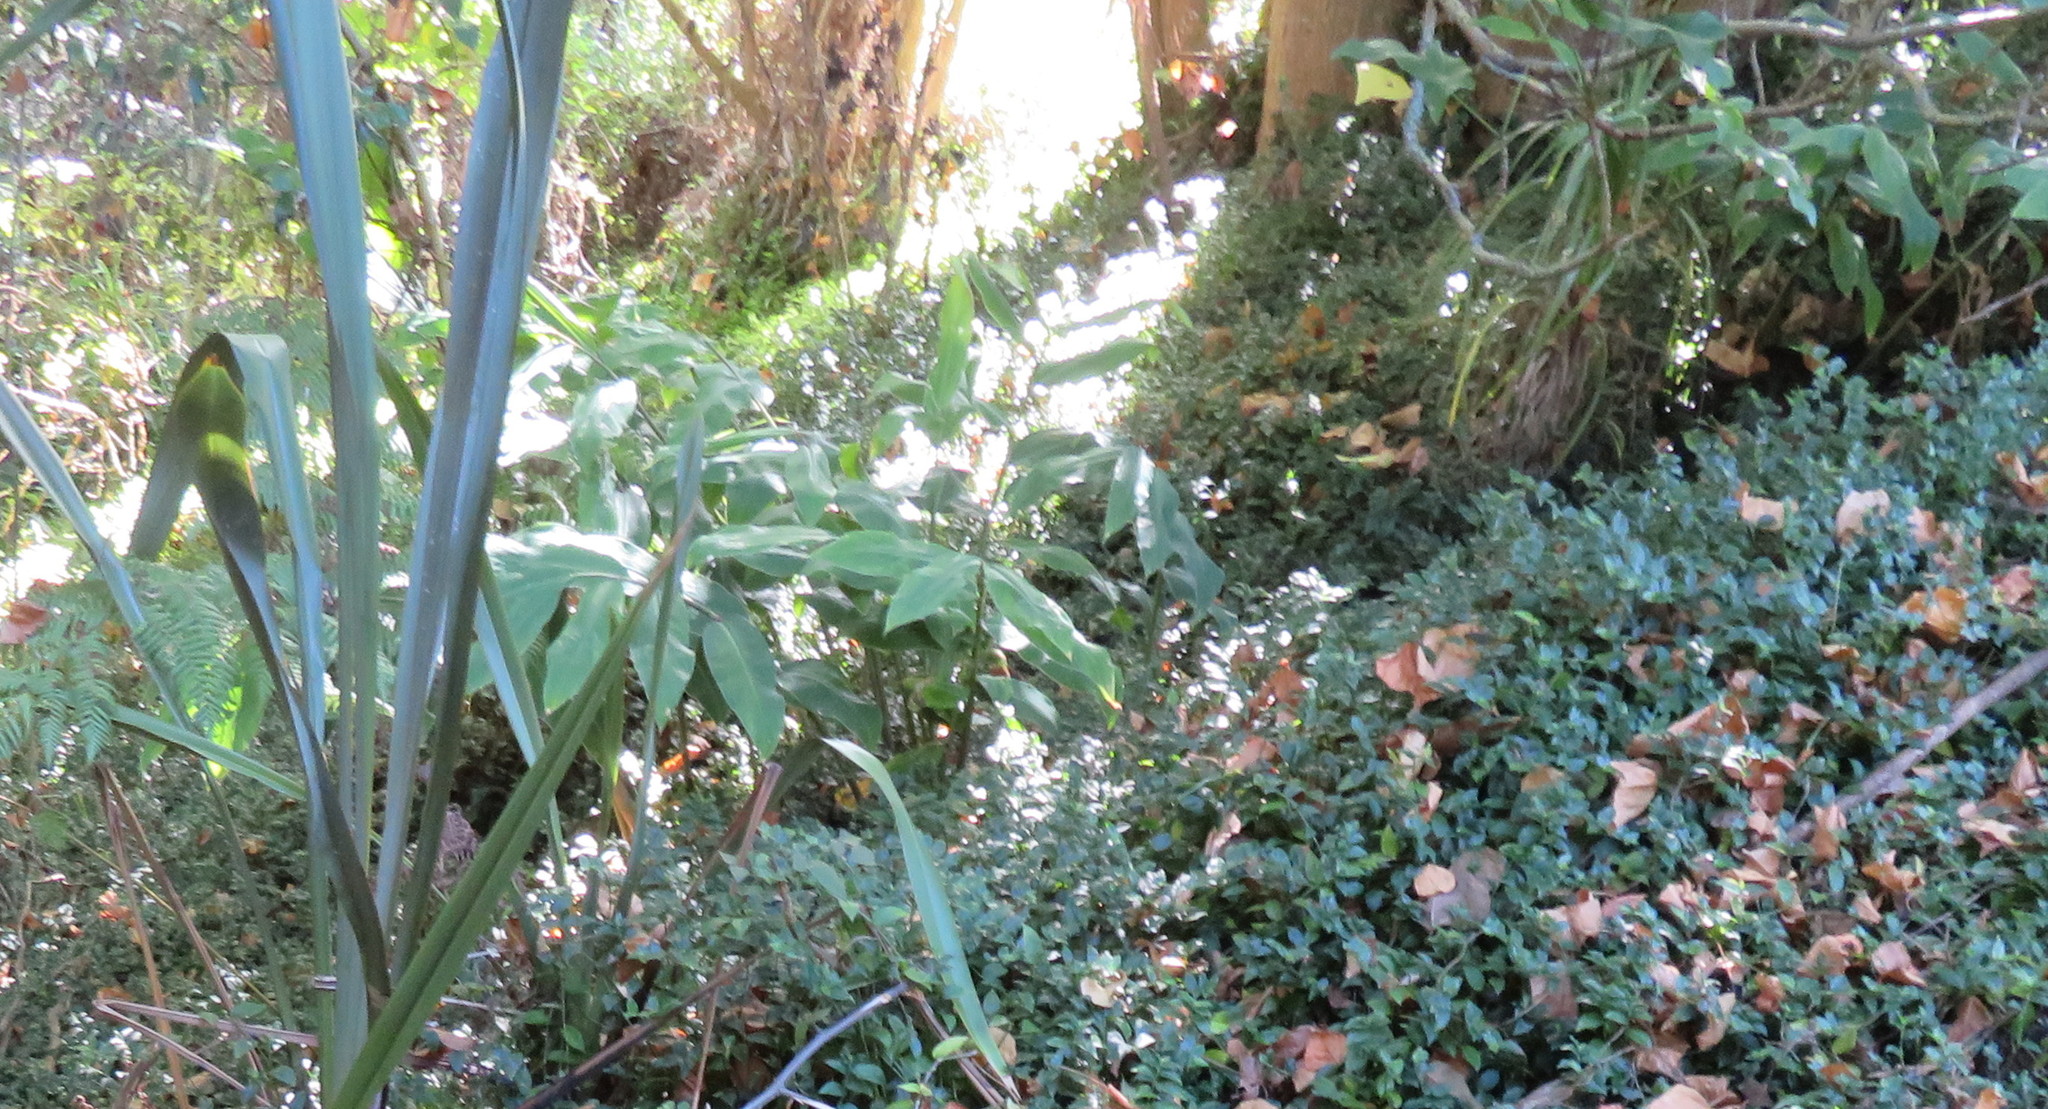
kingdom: Plantae
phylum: Tracheophyta
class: Liliopsida
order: Commelinales
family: Commelinaceae
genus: Tradescantia
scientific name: Tradescantia fluminensis
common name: Wandering-jew
